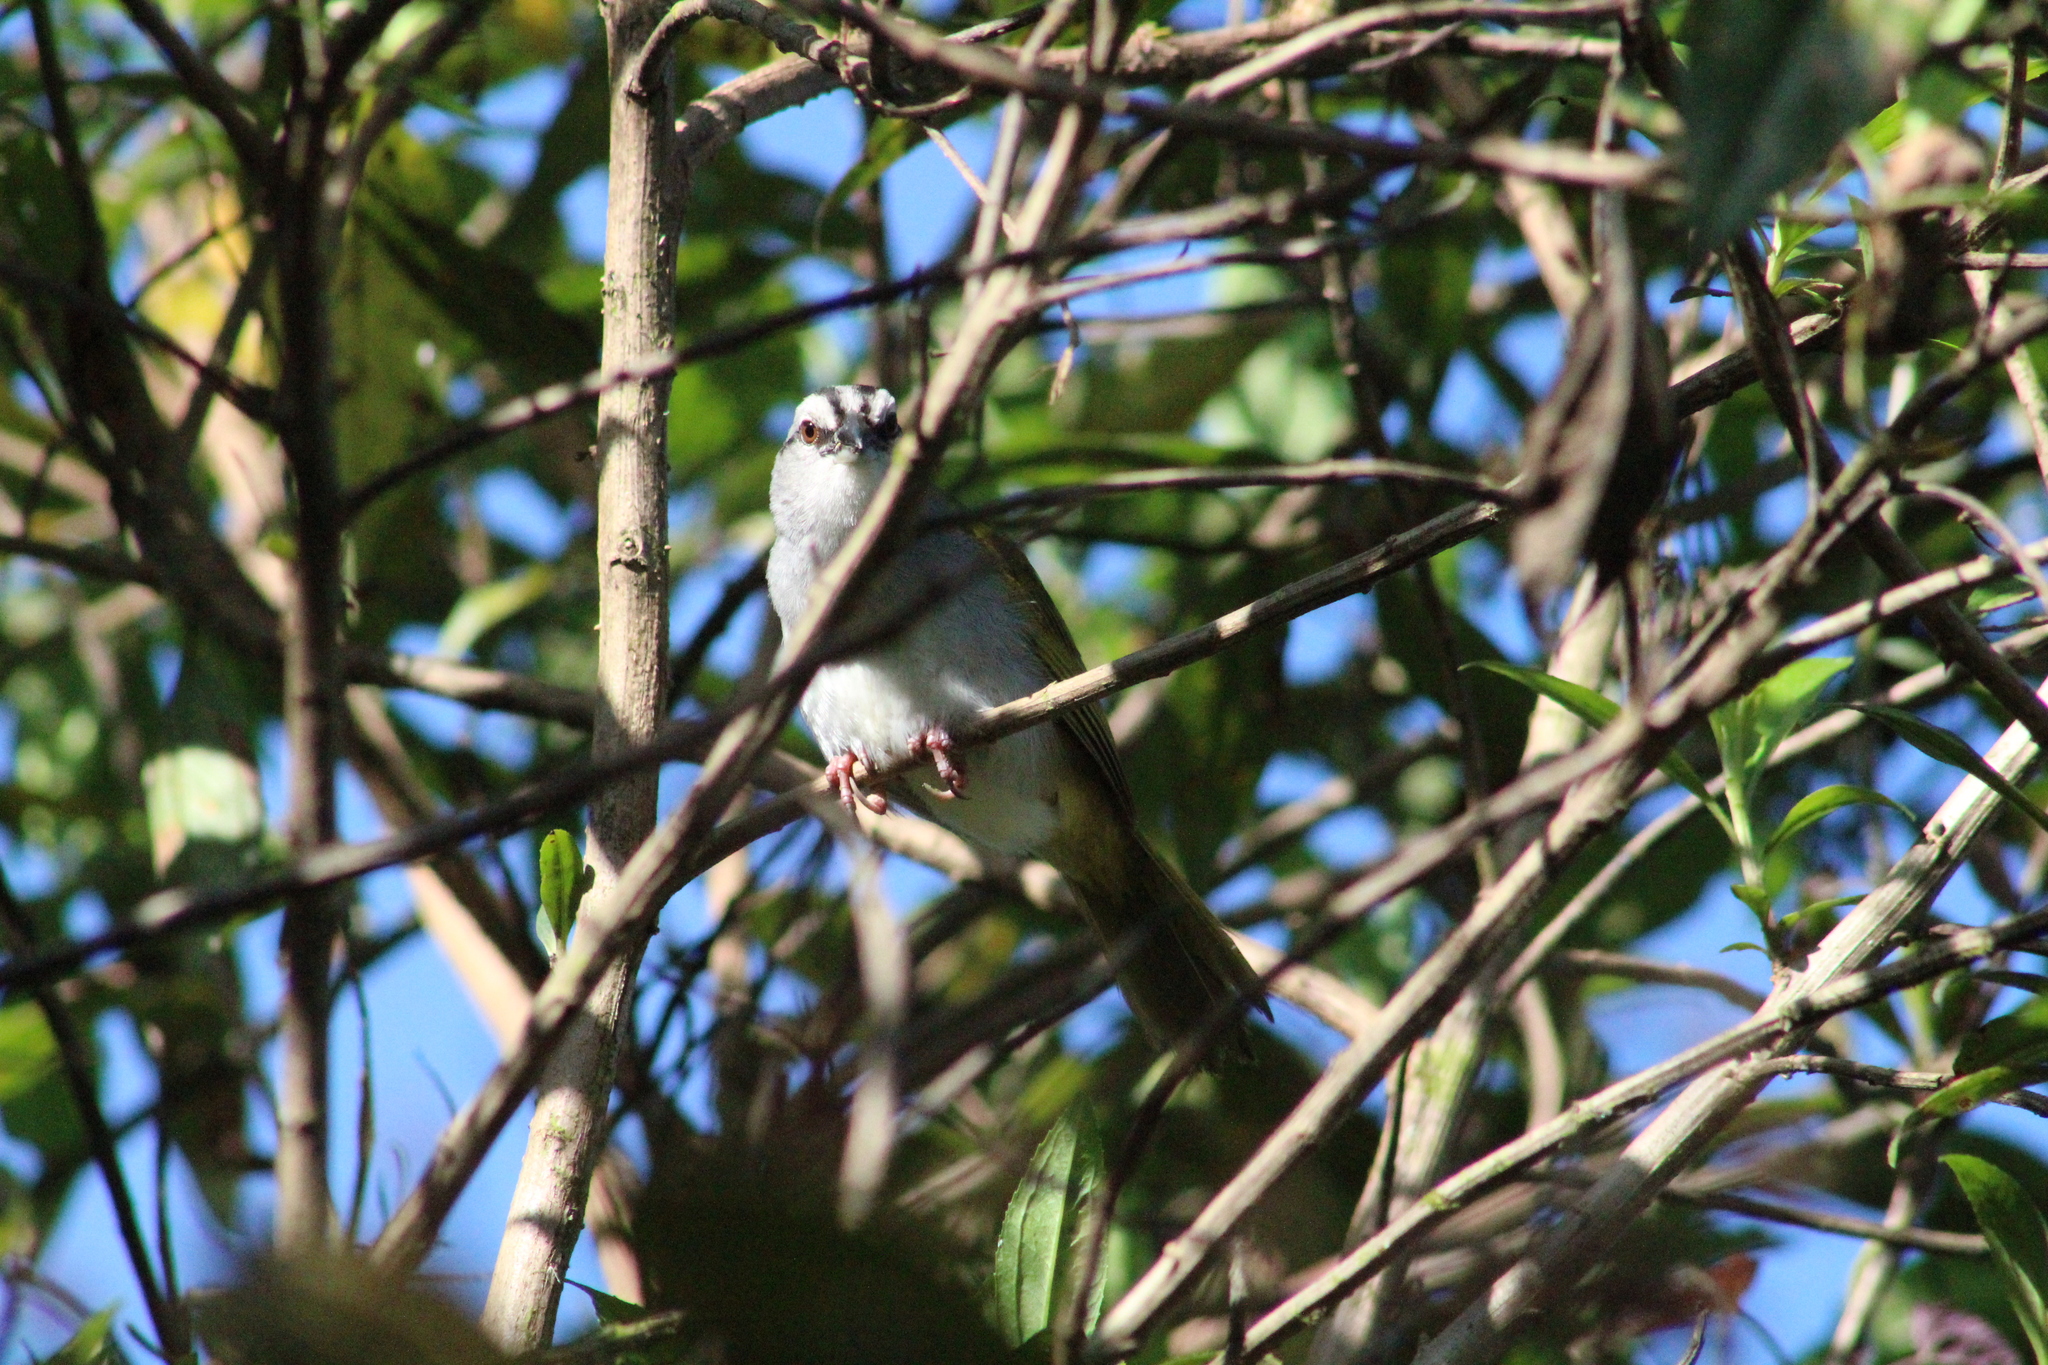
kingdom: Animalia
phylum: Chordata
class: Aves
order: Passeriformes
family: Passerellidae
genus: Arremonops
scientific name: Arremonops conirostris
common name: Black-striped sparrow
